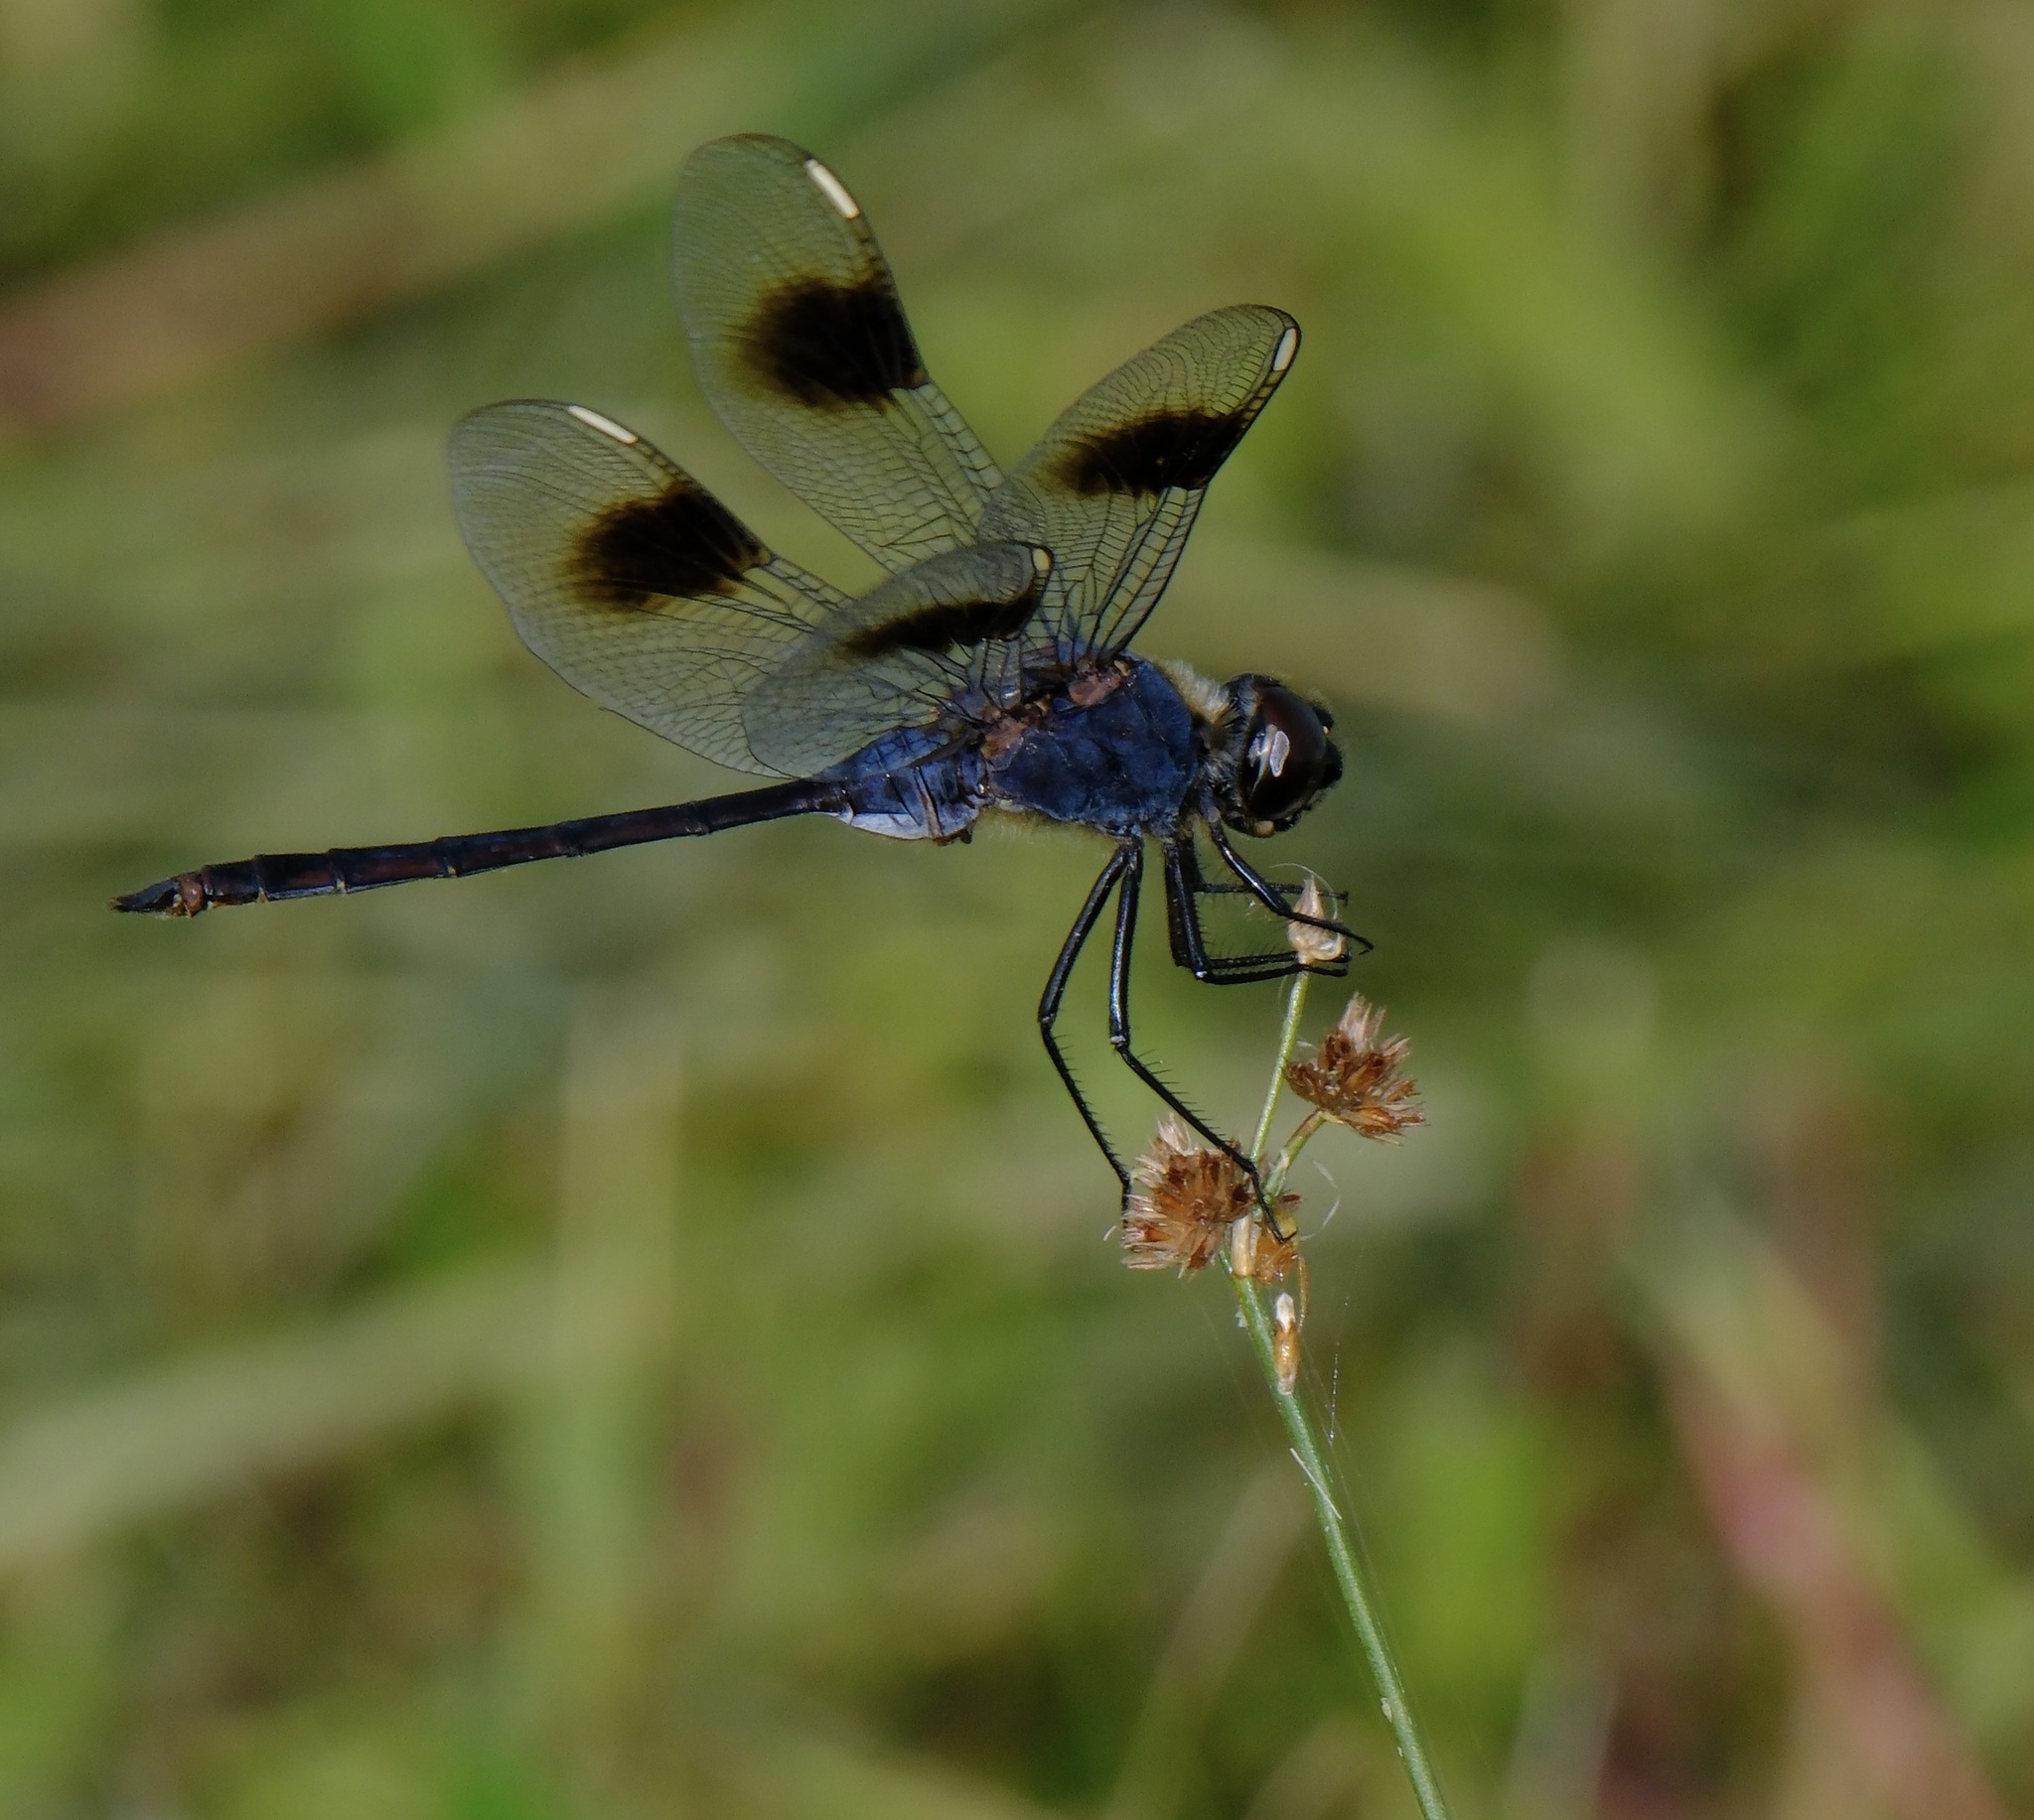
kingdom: Animalia
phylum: Arthropoda
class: Insecta
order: Odonata
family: Libellulidae
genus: Brachymesia
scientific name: Brachymesia gravida
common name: Four-spotted pennant
